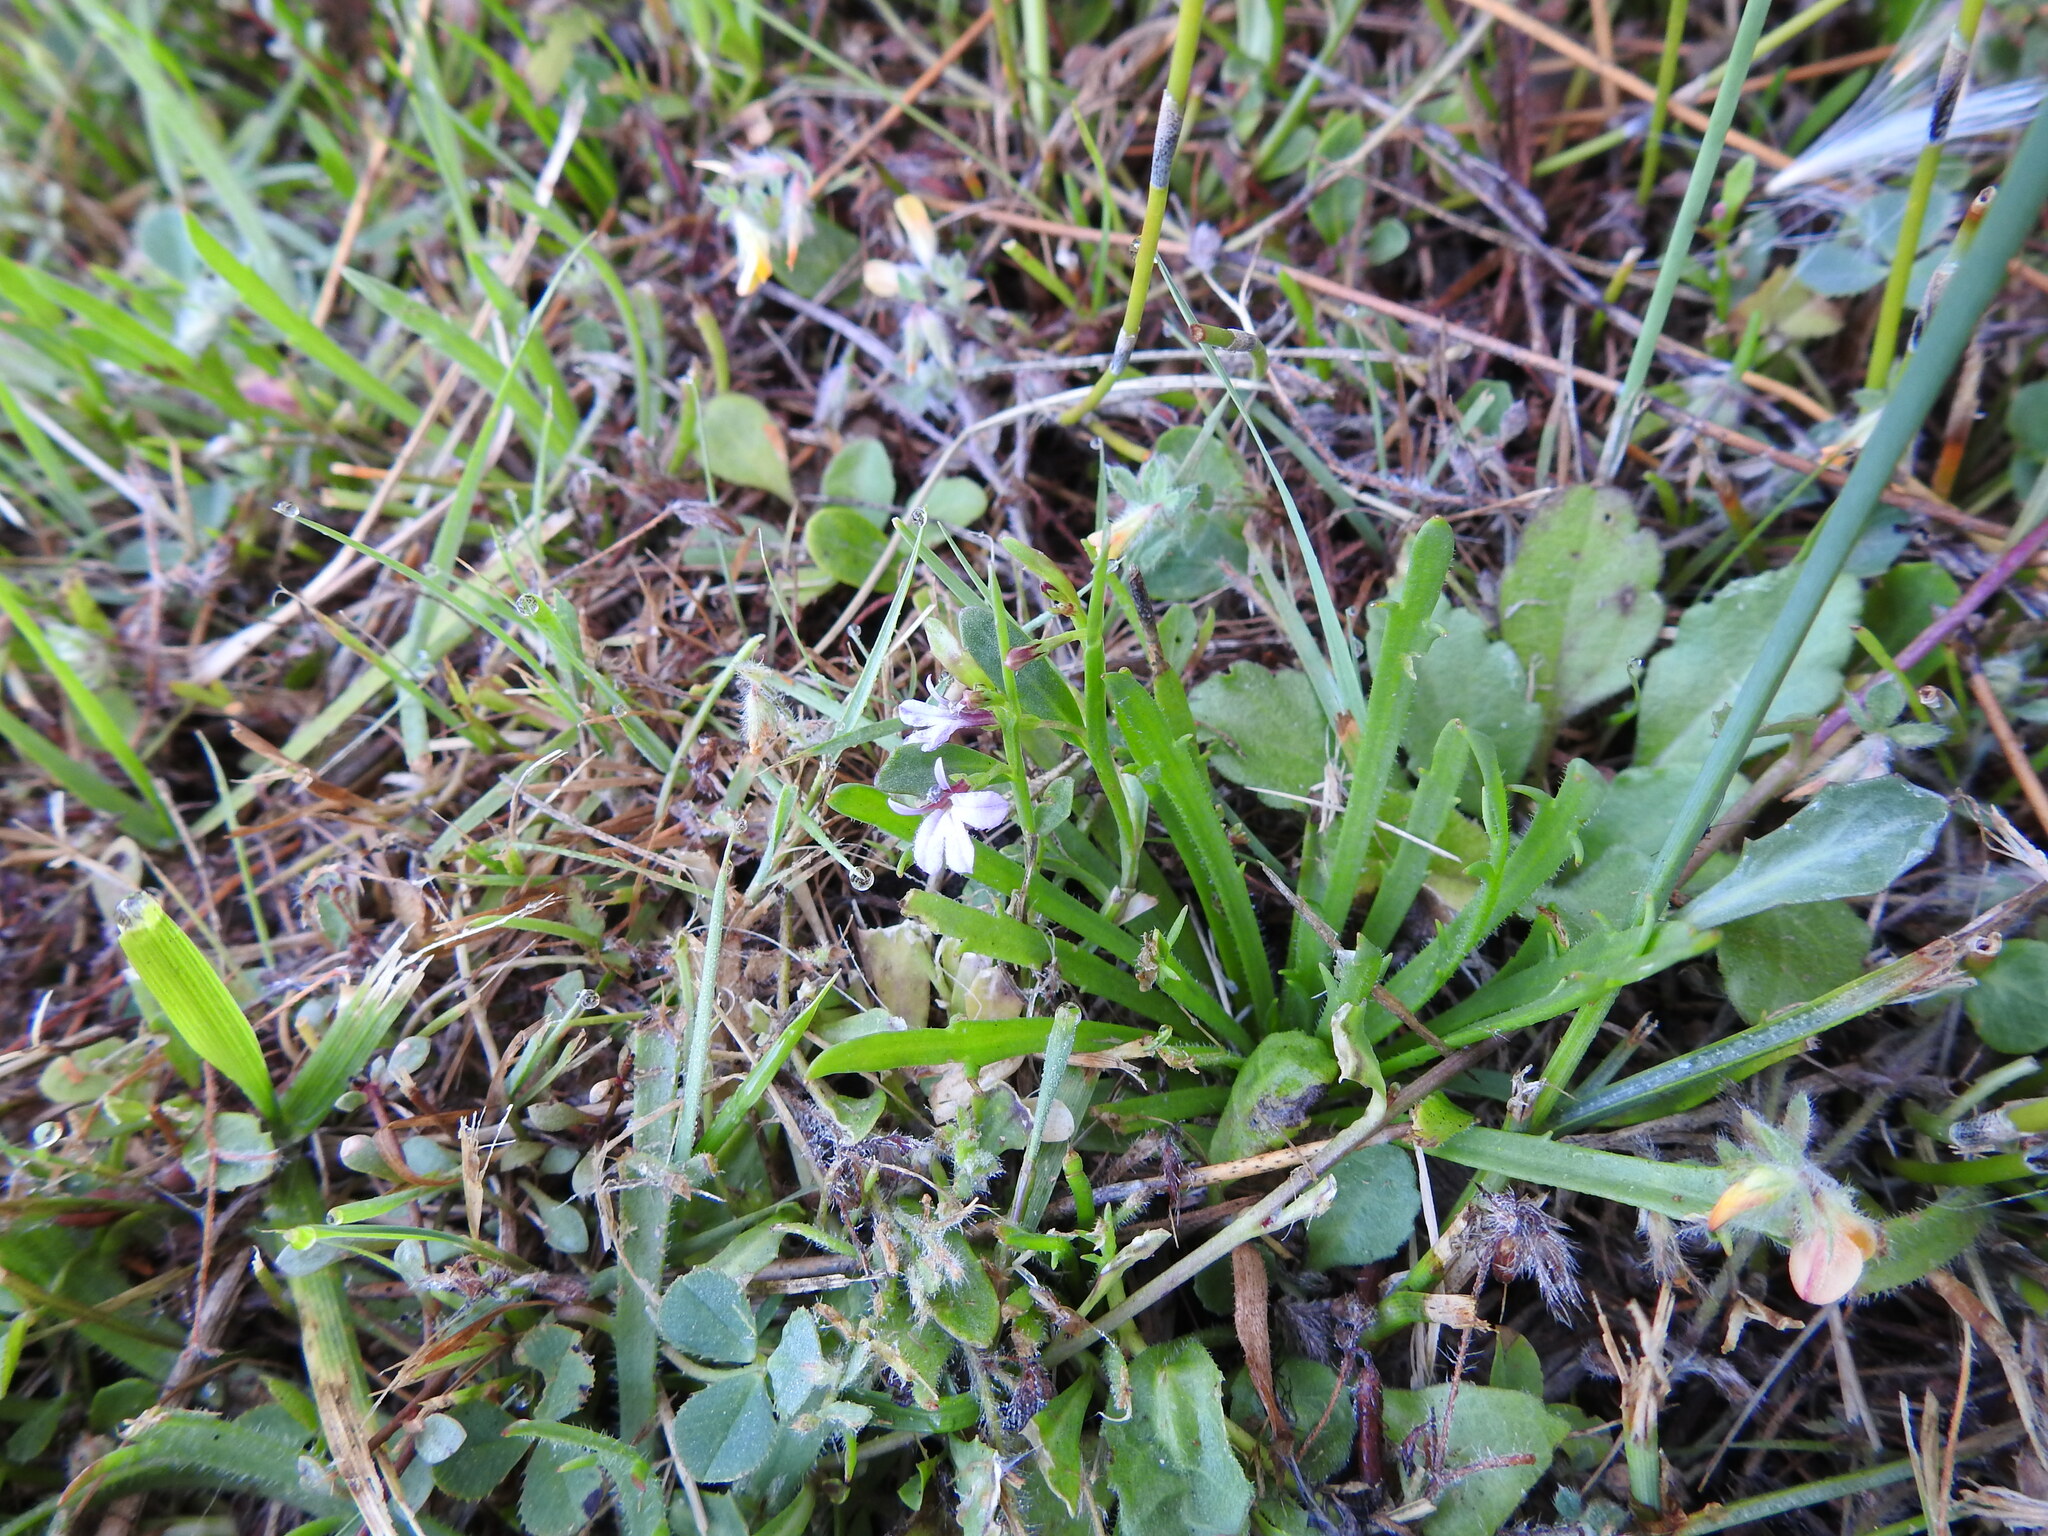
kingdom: Plantae
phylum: Tracheophyta
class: Magnoliopsida
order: Asterales
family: Campanulaceae
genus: Lobelia
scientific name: Lobelia anceps
